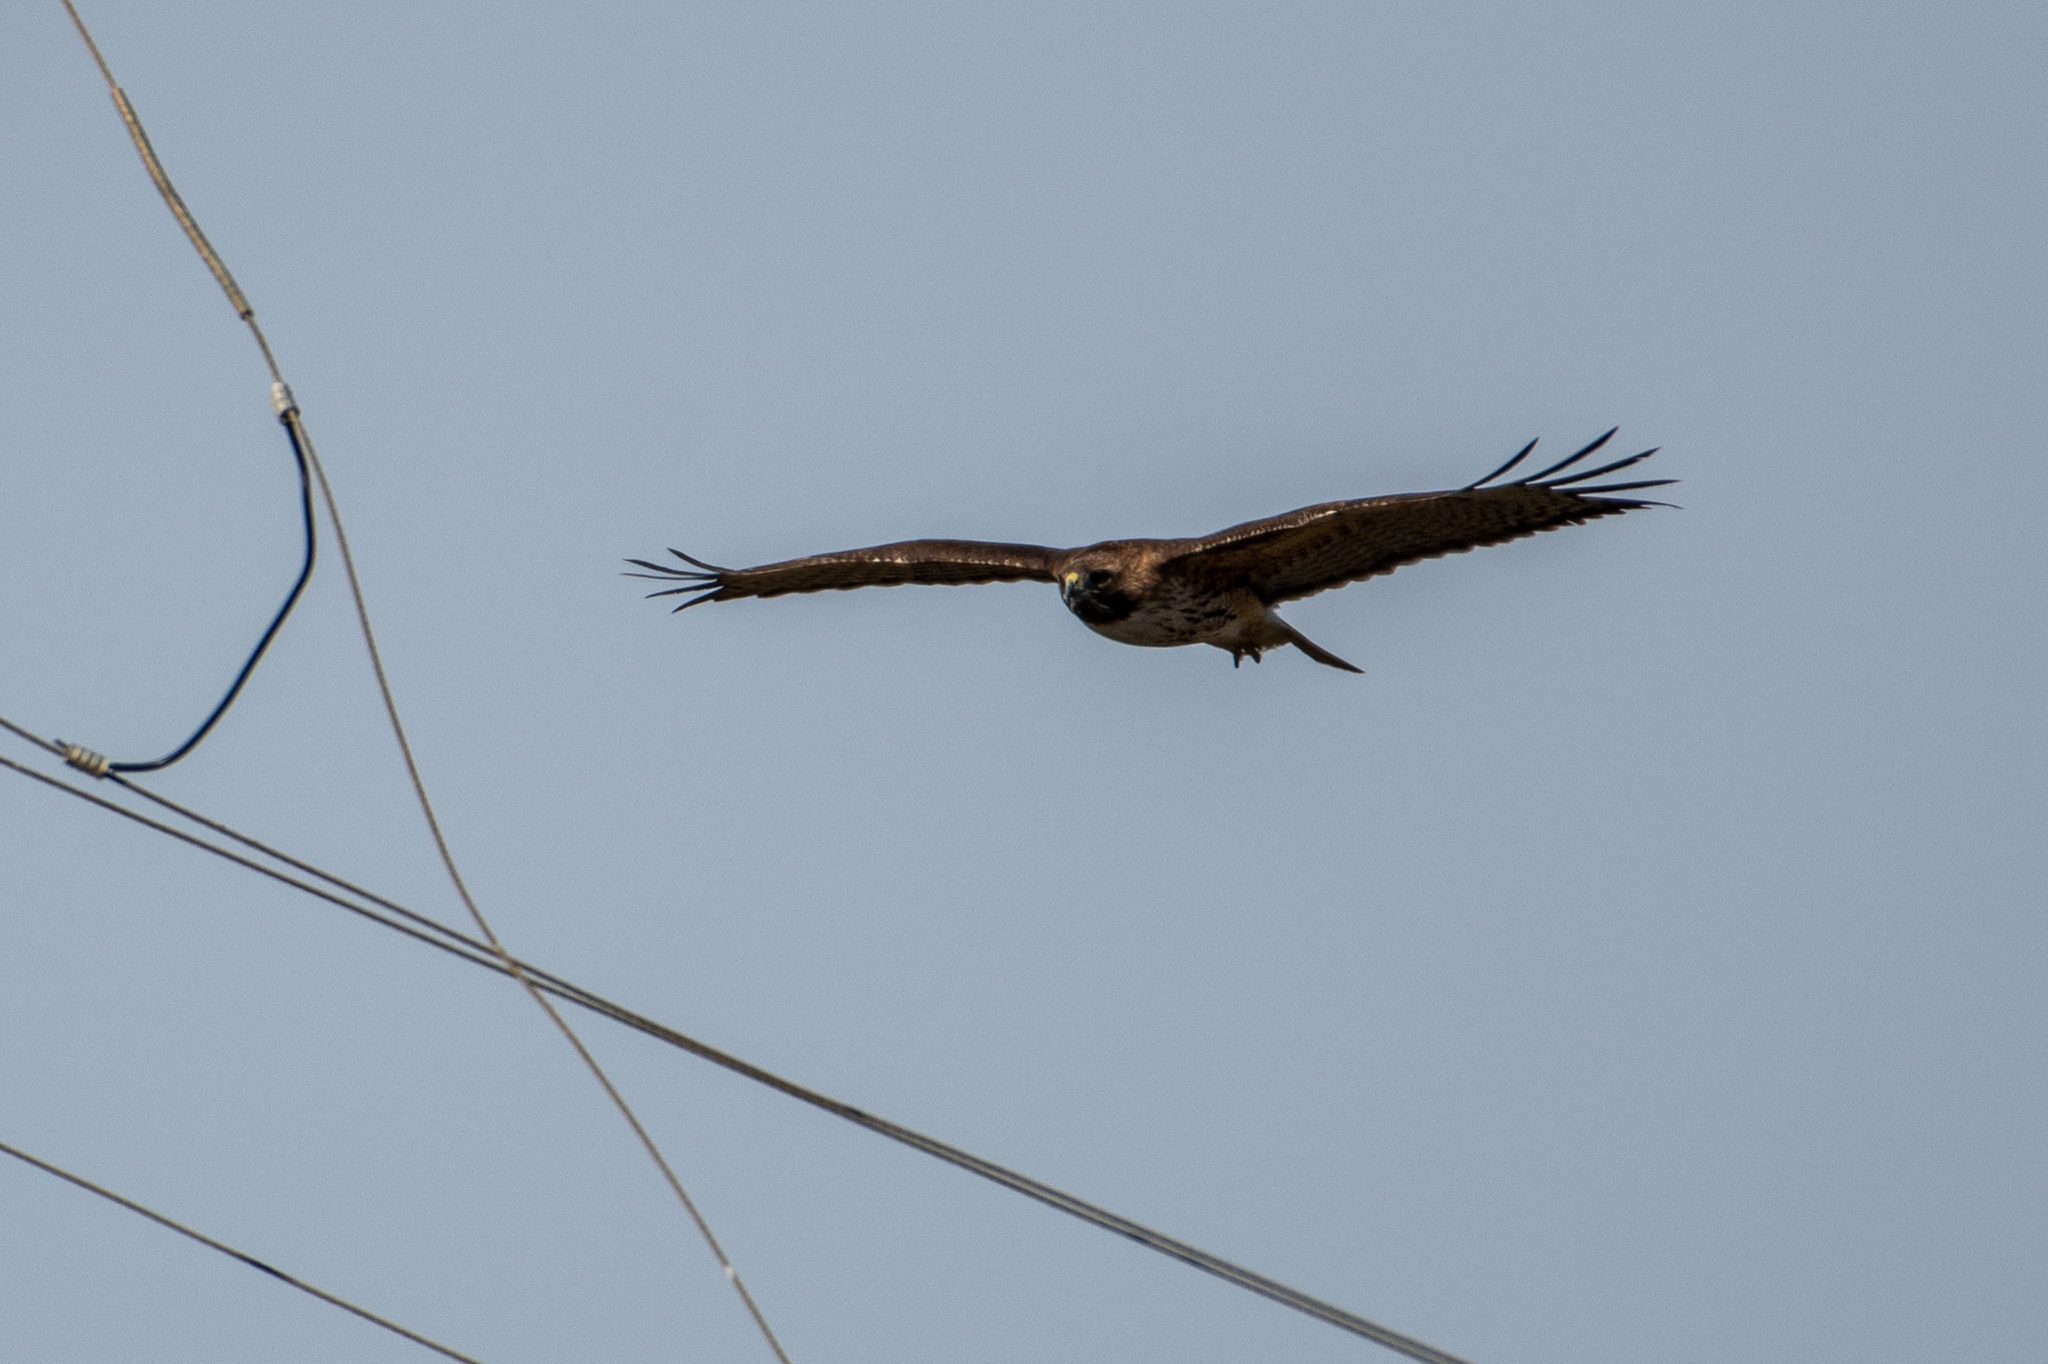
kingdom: Animalia
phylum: Chordata
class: Aves
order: Accipitriformes
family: Accipitridae
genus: Buteo
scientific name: Buteo jamaicensis
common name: Red-tailed hawk
